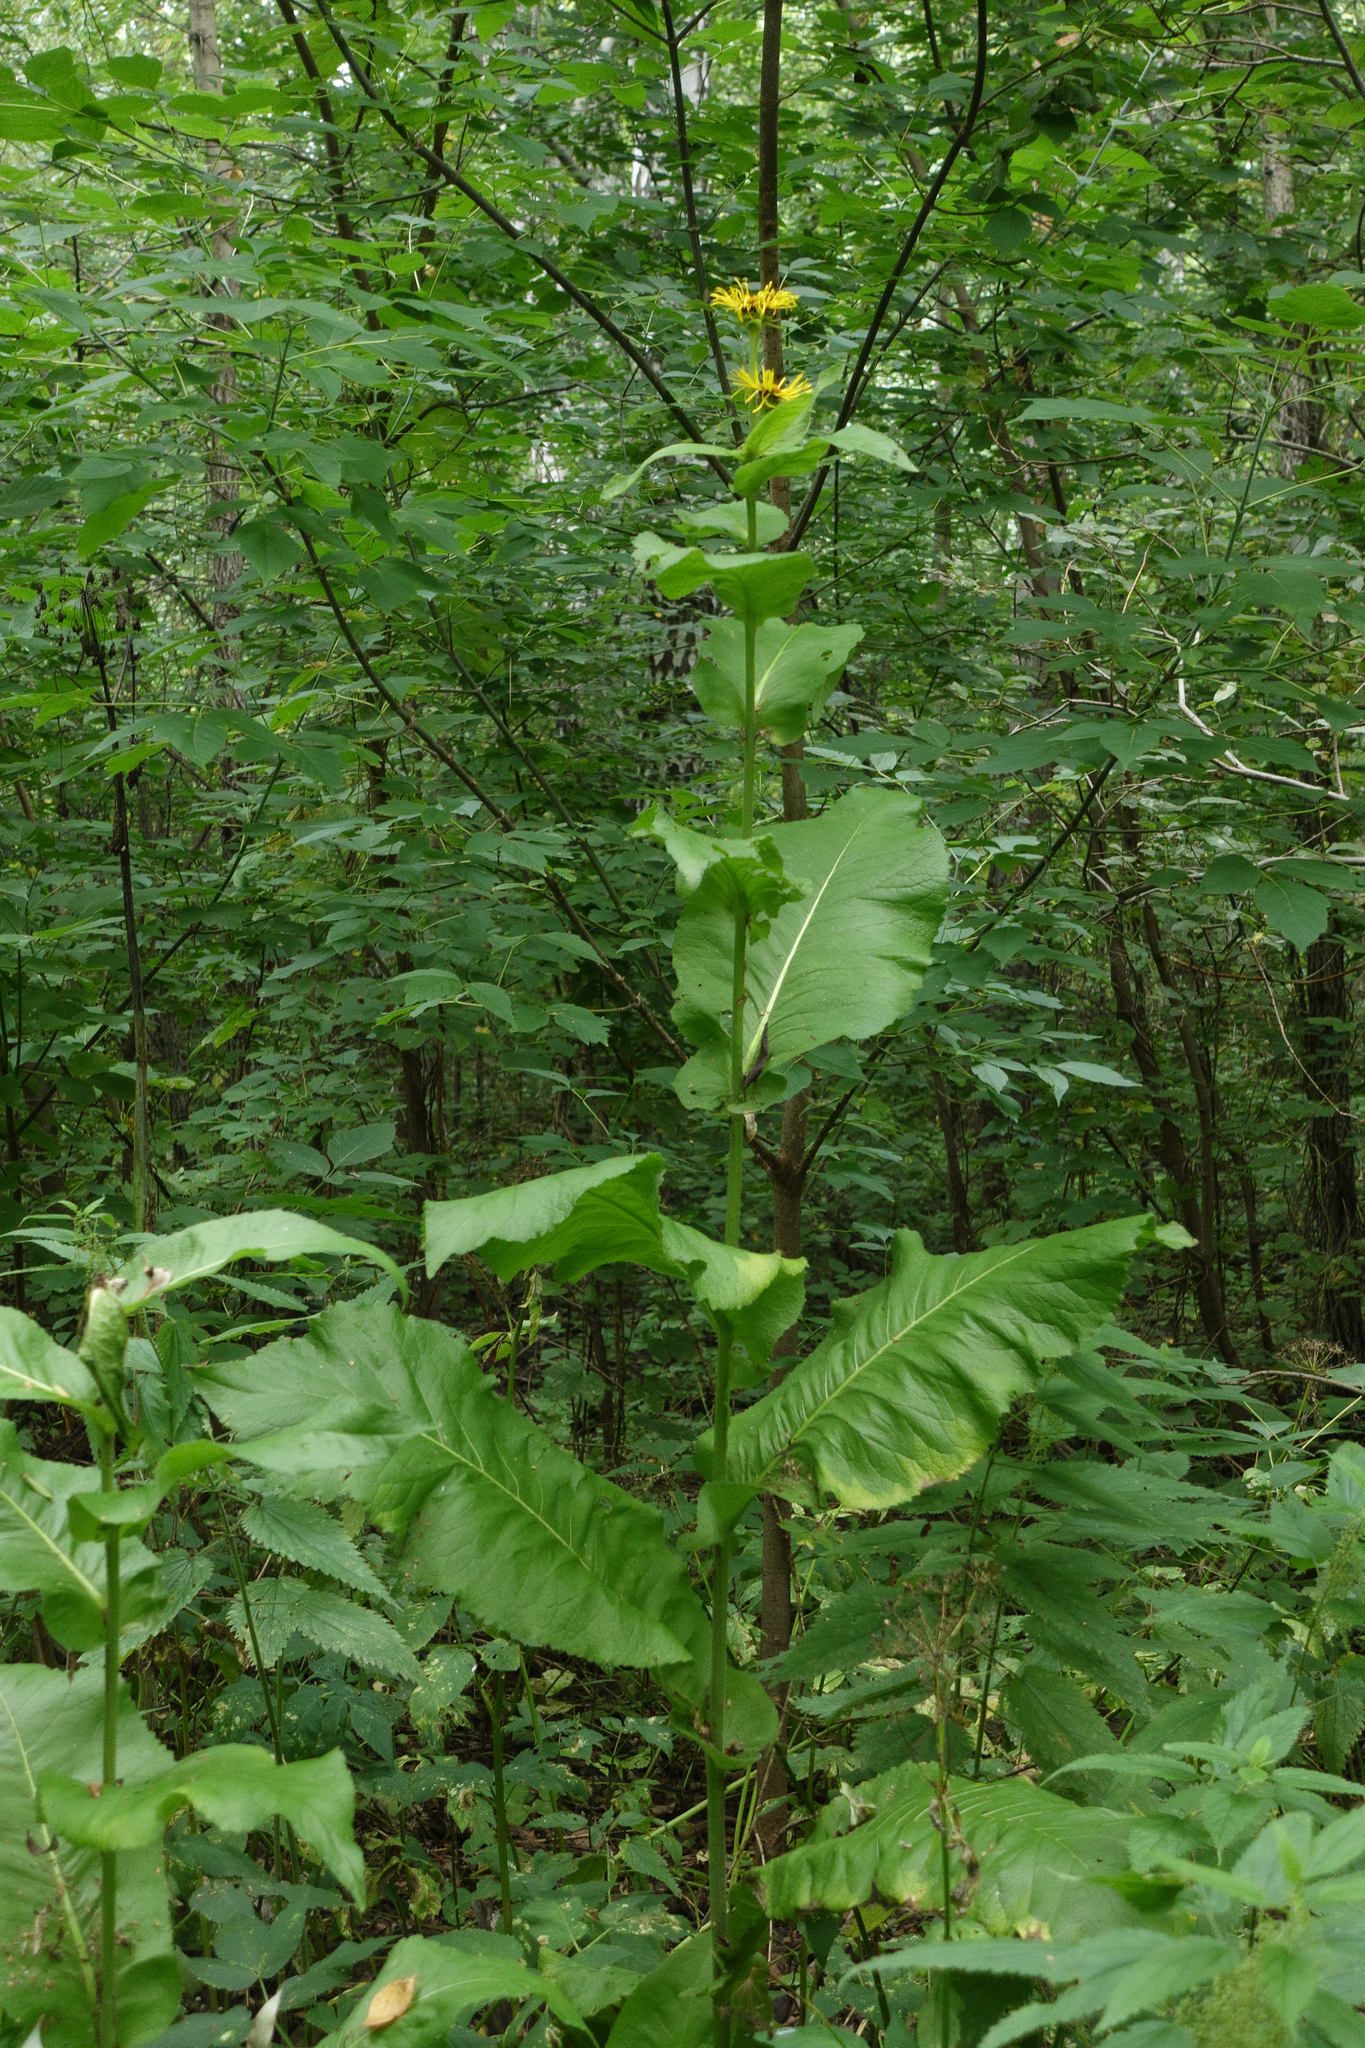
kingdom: Plantae
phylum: Tracheophyta
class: Magnoliopsida
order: Asterales
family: Asteraceae
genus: Inula
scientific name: Inula helenium
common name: Elecampane
